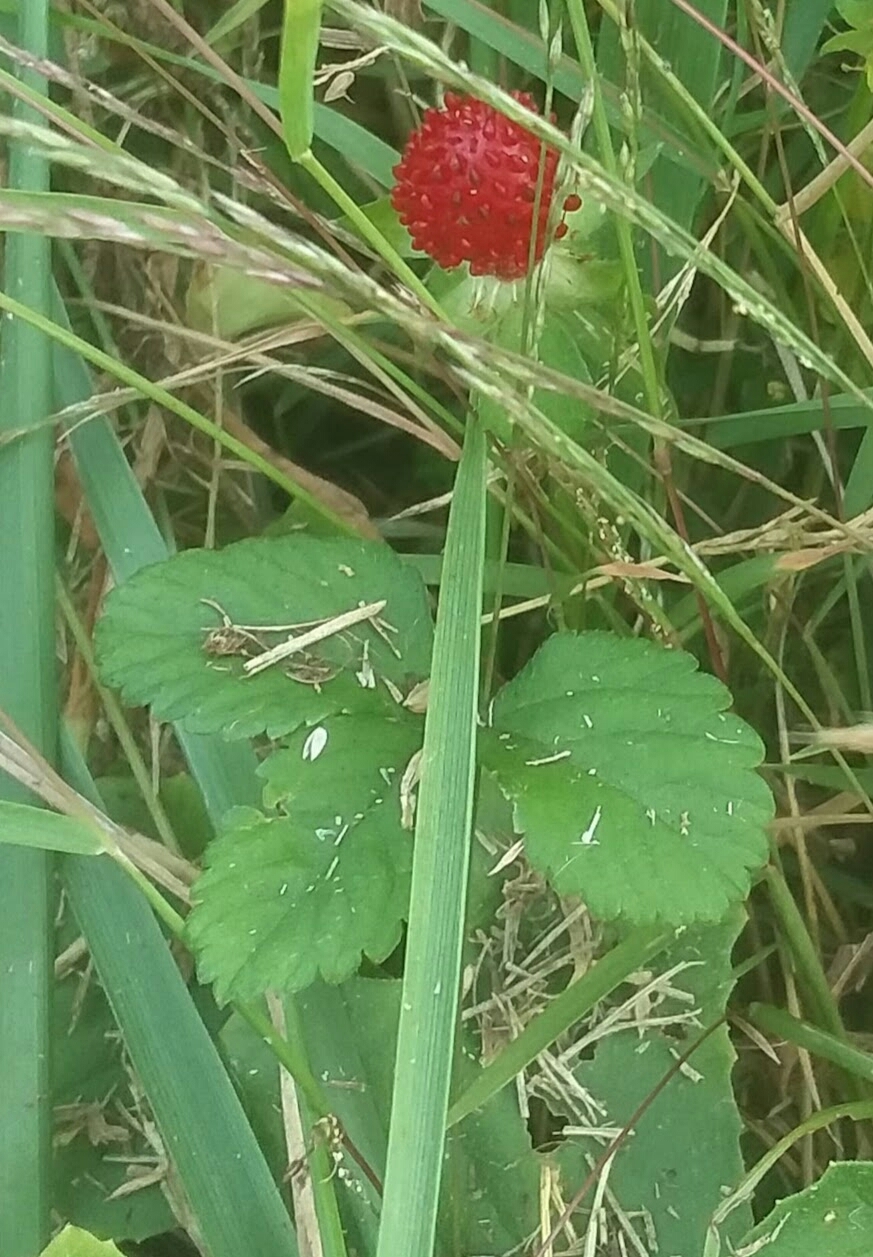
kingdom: Plantae
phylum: Tracheophyta
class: Magnoliopsida
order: Rosales
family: Rosaceae
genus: Potentilla
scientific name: Potentilla indica
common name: Yellow-flowered strawberry
